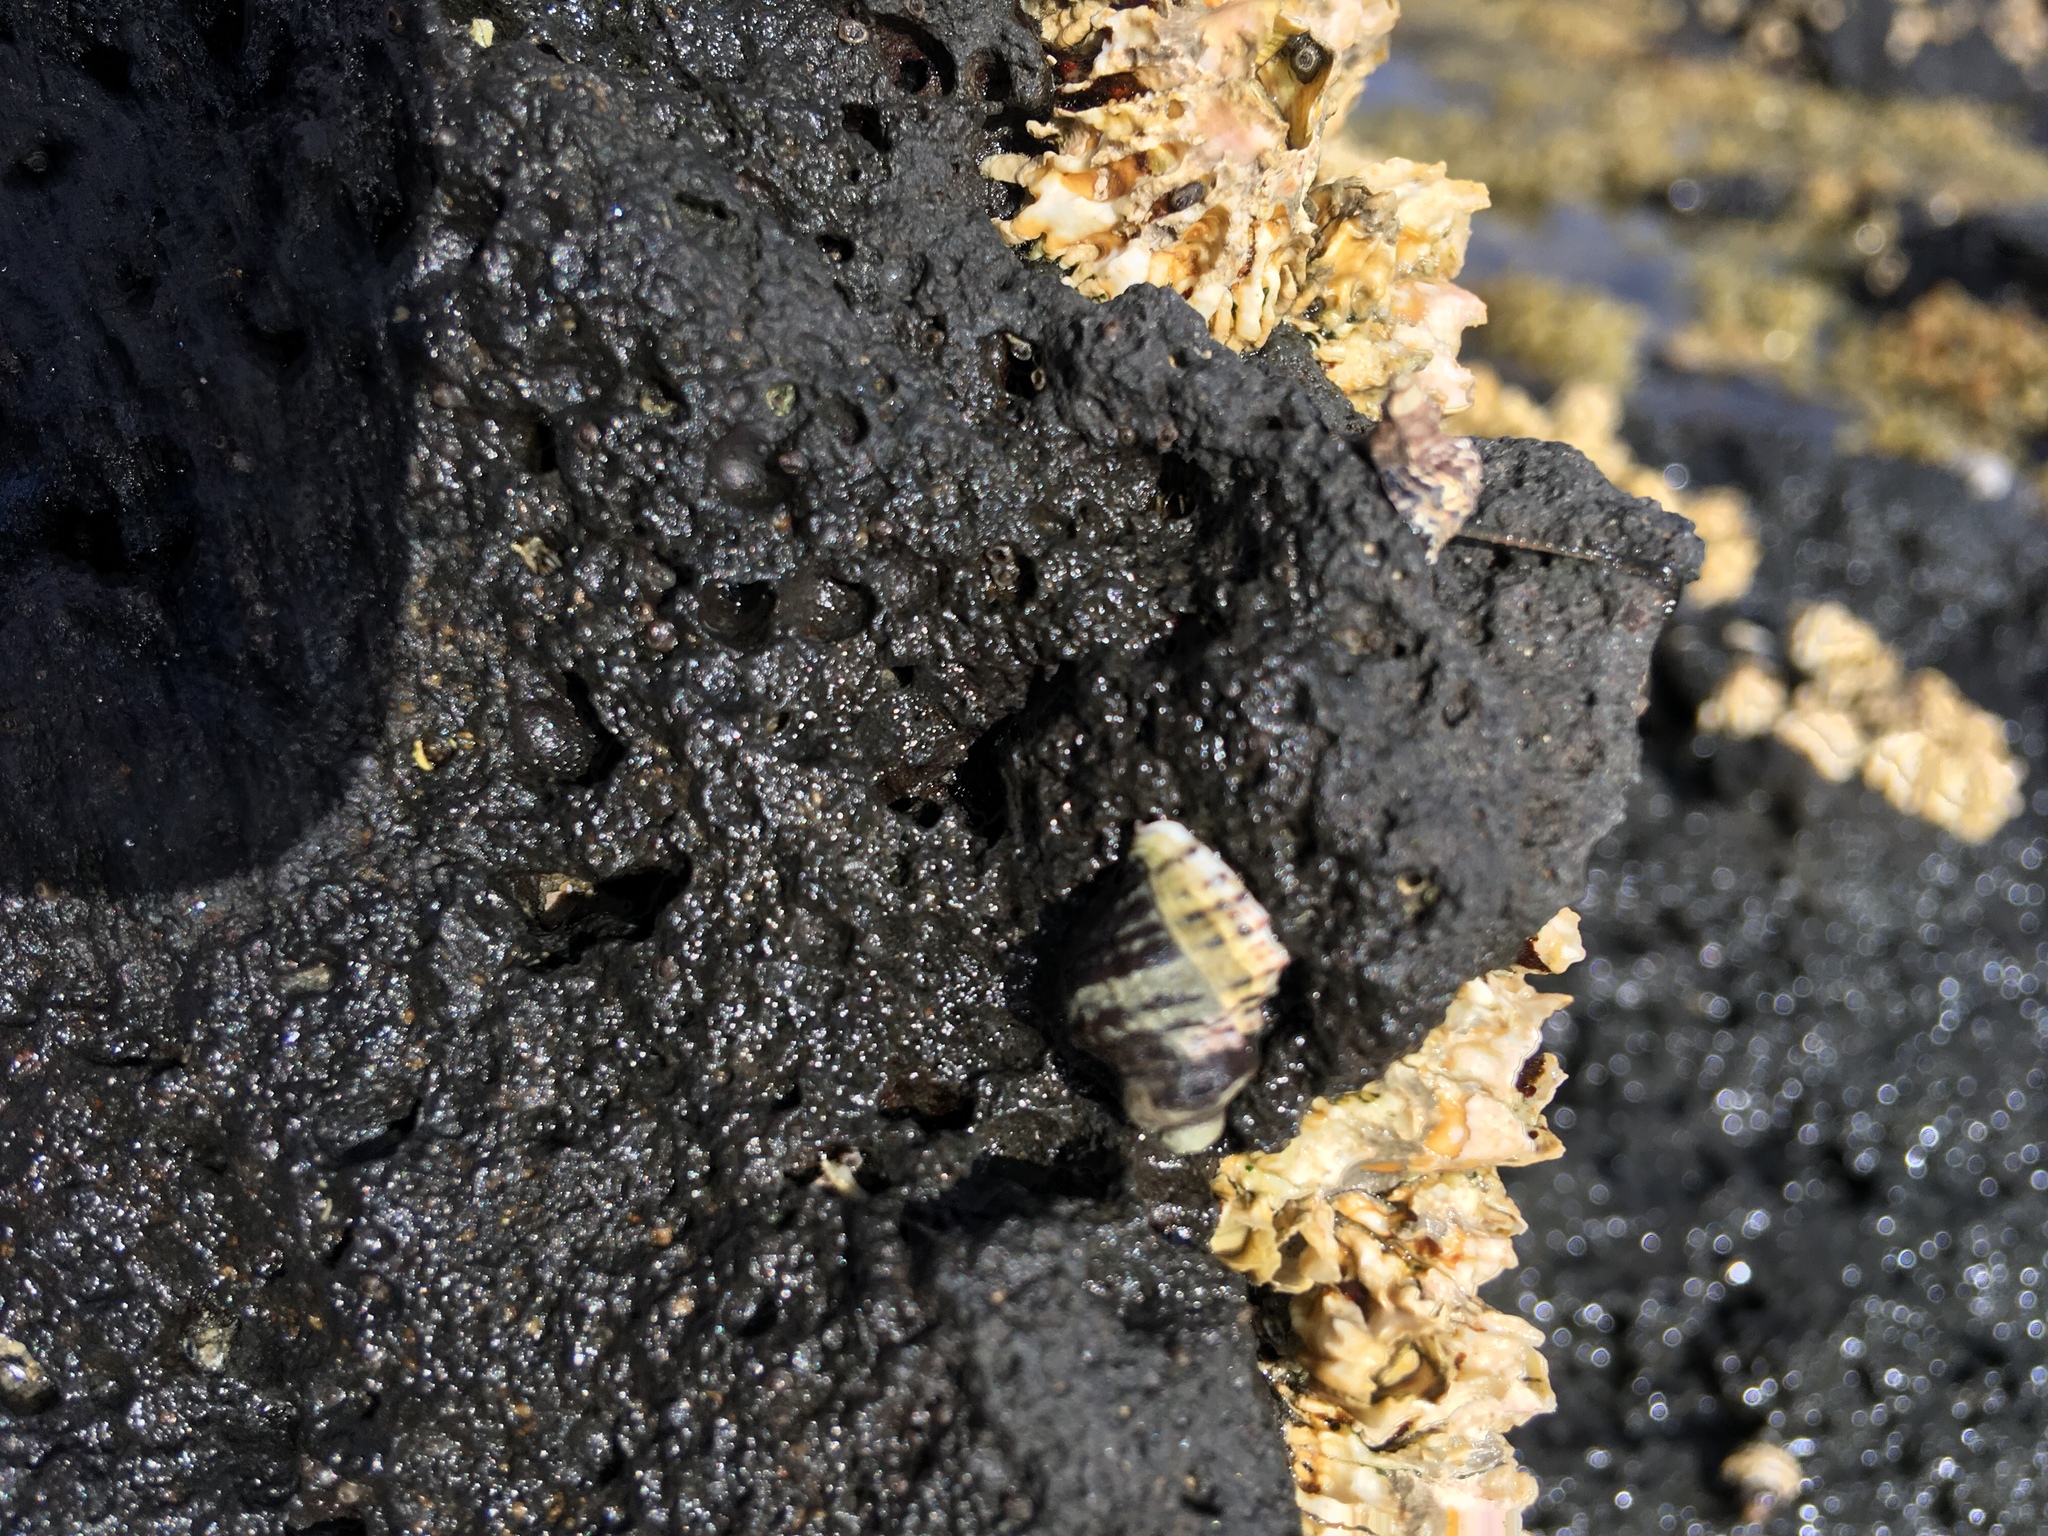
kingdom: Animalia
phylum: Mollusca
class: Gastropoda
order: Neogastropoda
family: Muricidae
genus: Haustrum
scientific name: Haustrum albomarginatum
